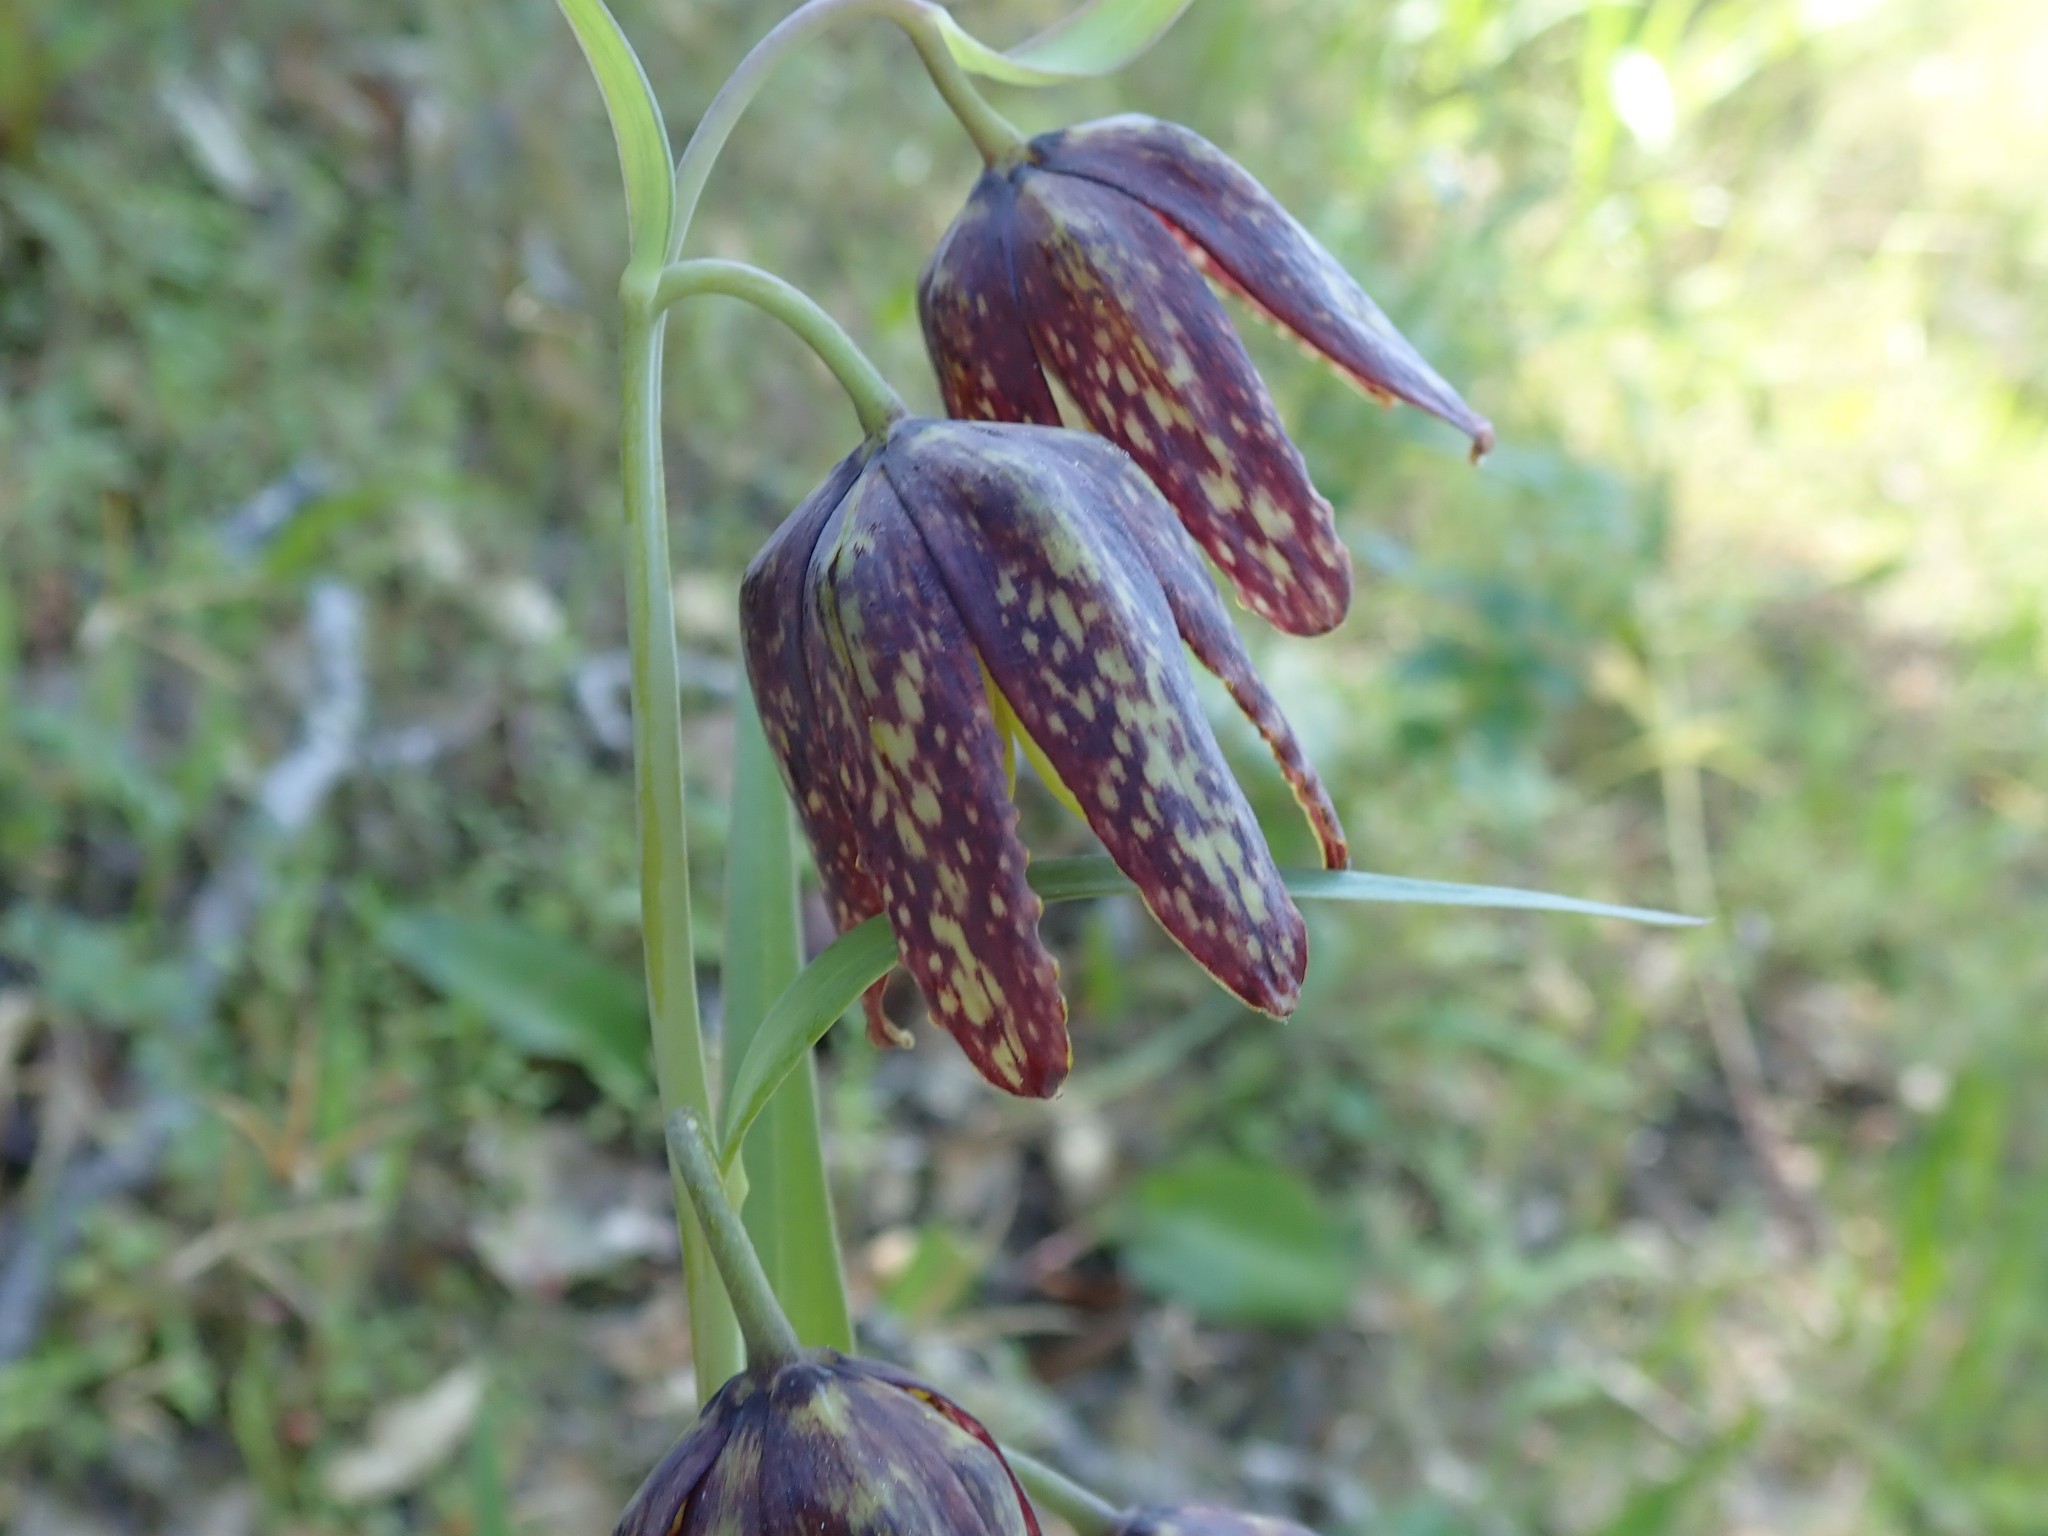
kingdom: Plantae
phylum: Tracheophyta
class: Liliopsida
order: Liliales
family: Liliaceae
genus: Fritillaria
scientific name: Fritillaria affinis
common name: Ojai fritillary
